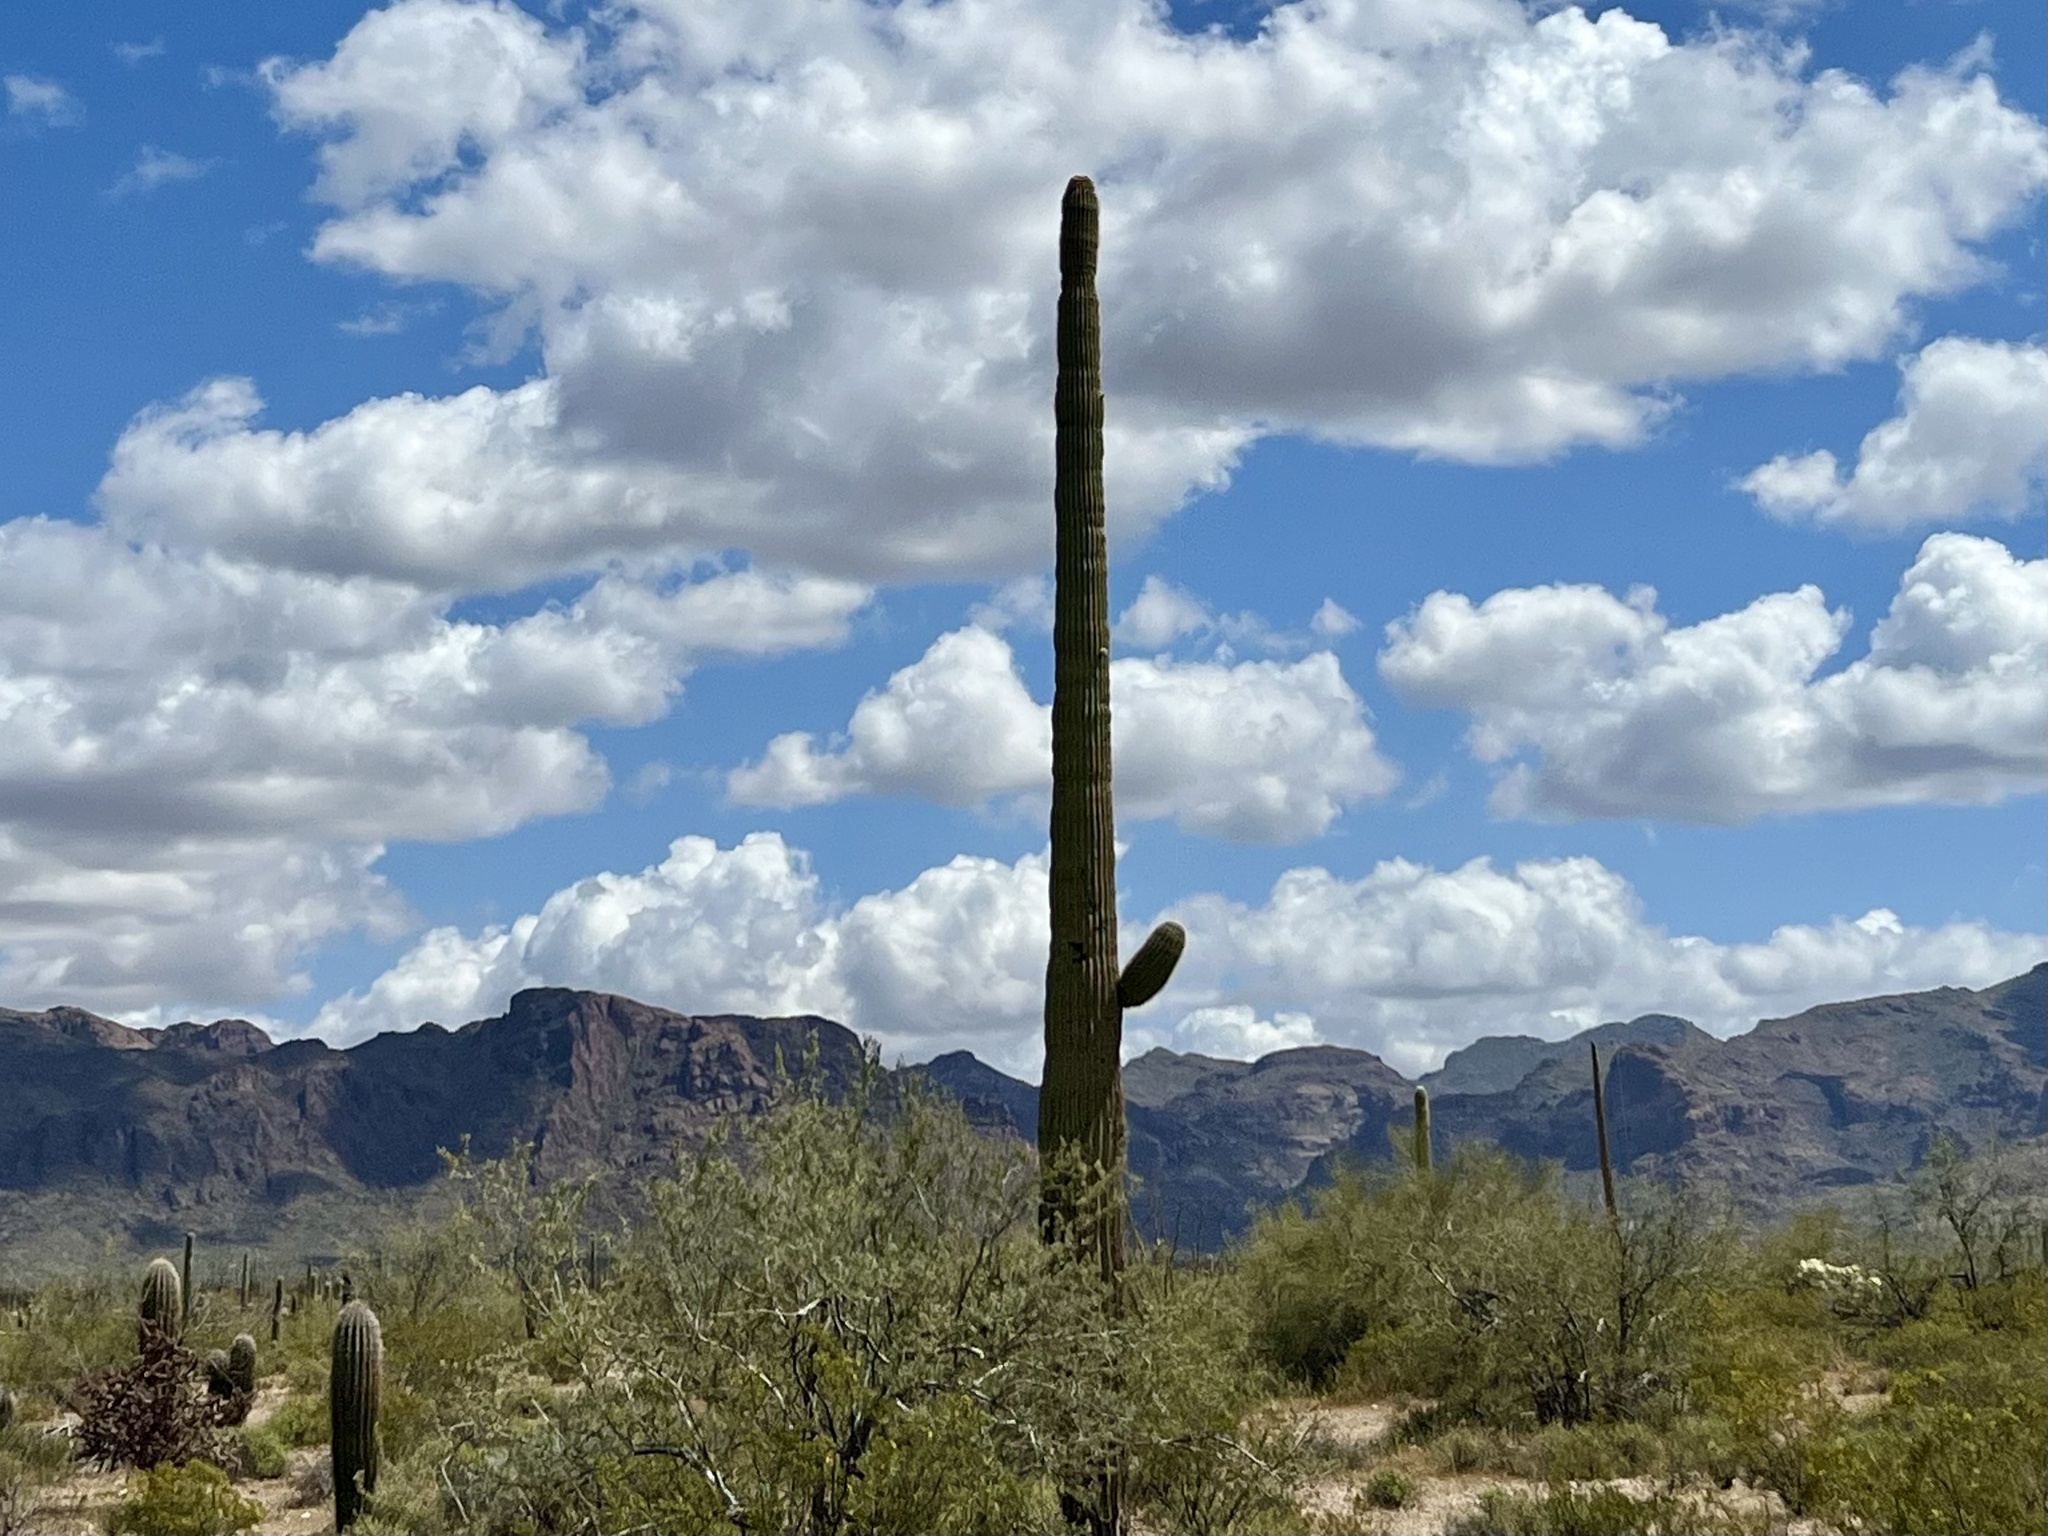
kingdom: Plantae
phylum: Tracheophyta
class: Magnoliopsida
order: Caryophyllales
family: Cactaceae
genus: Carnegiea
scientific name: Carnegiea gigantea
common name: Saguaro
